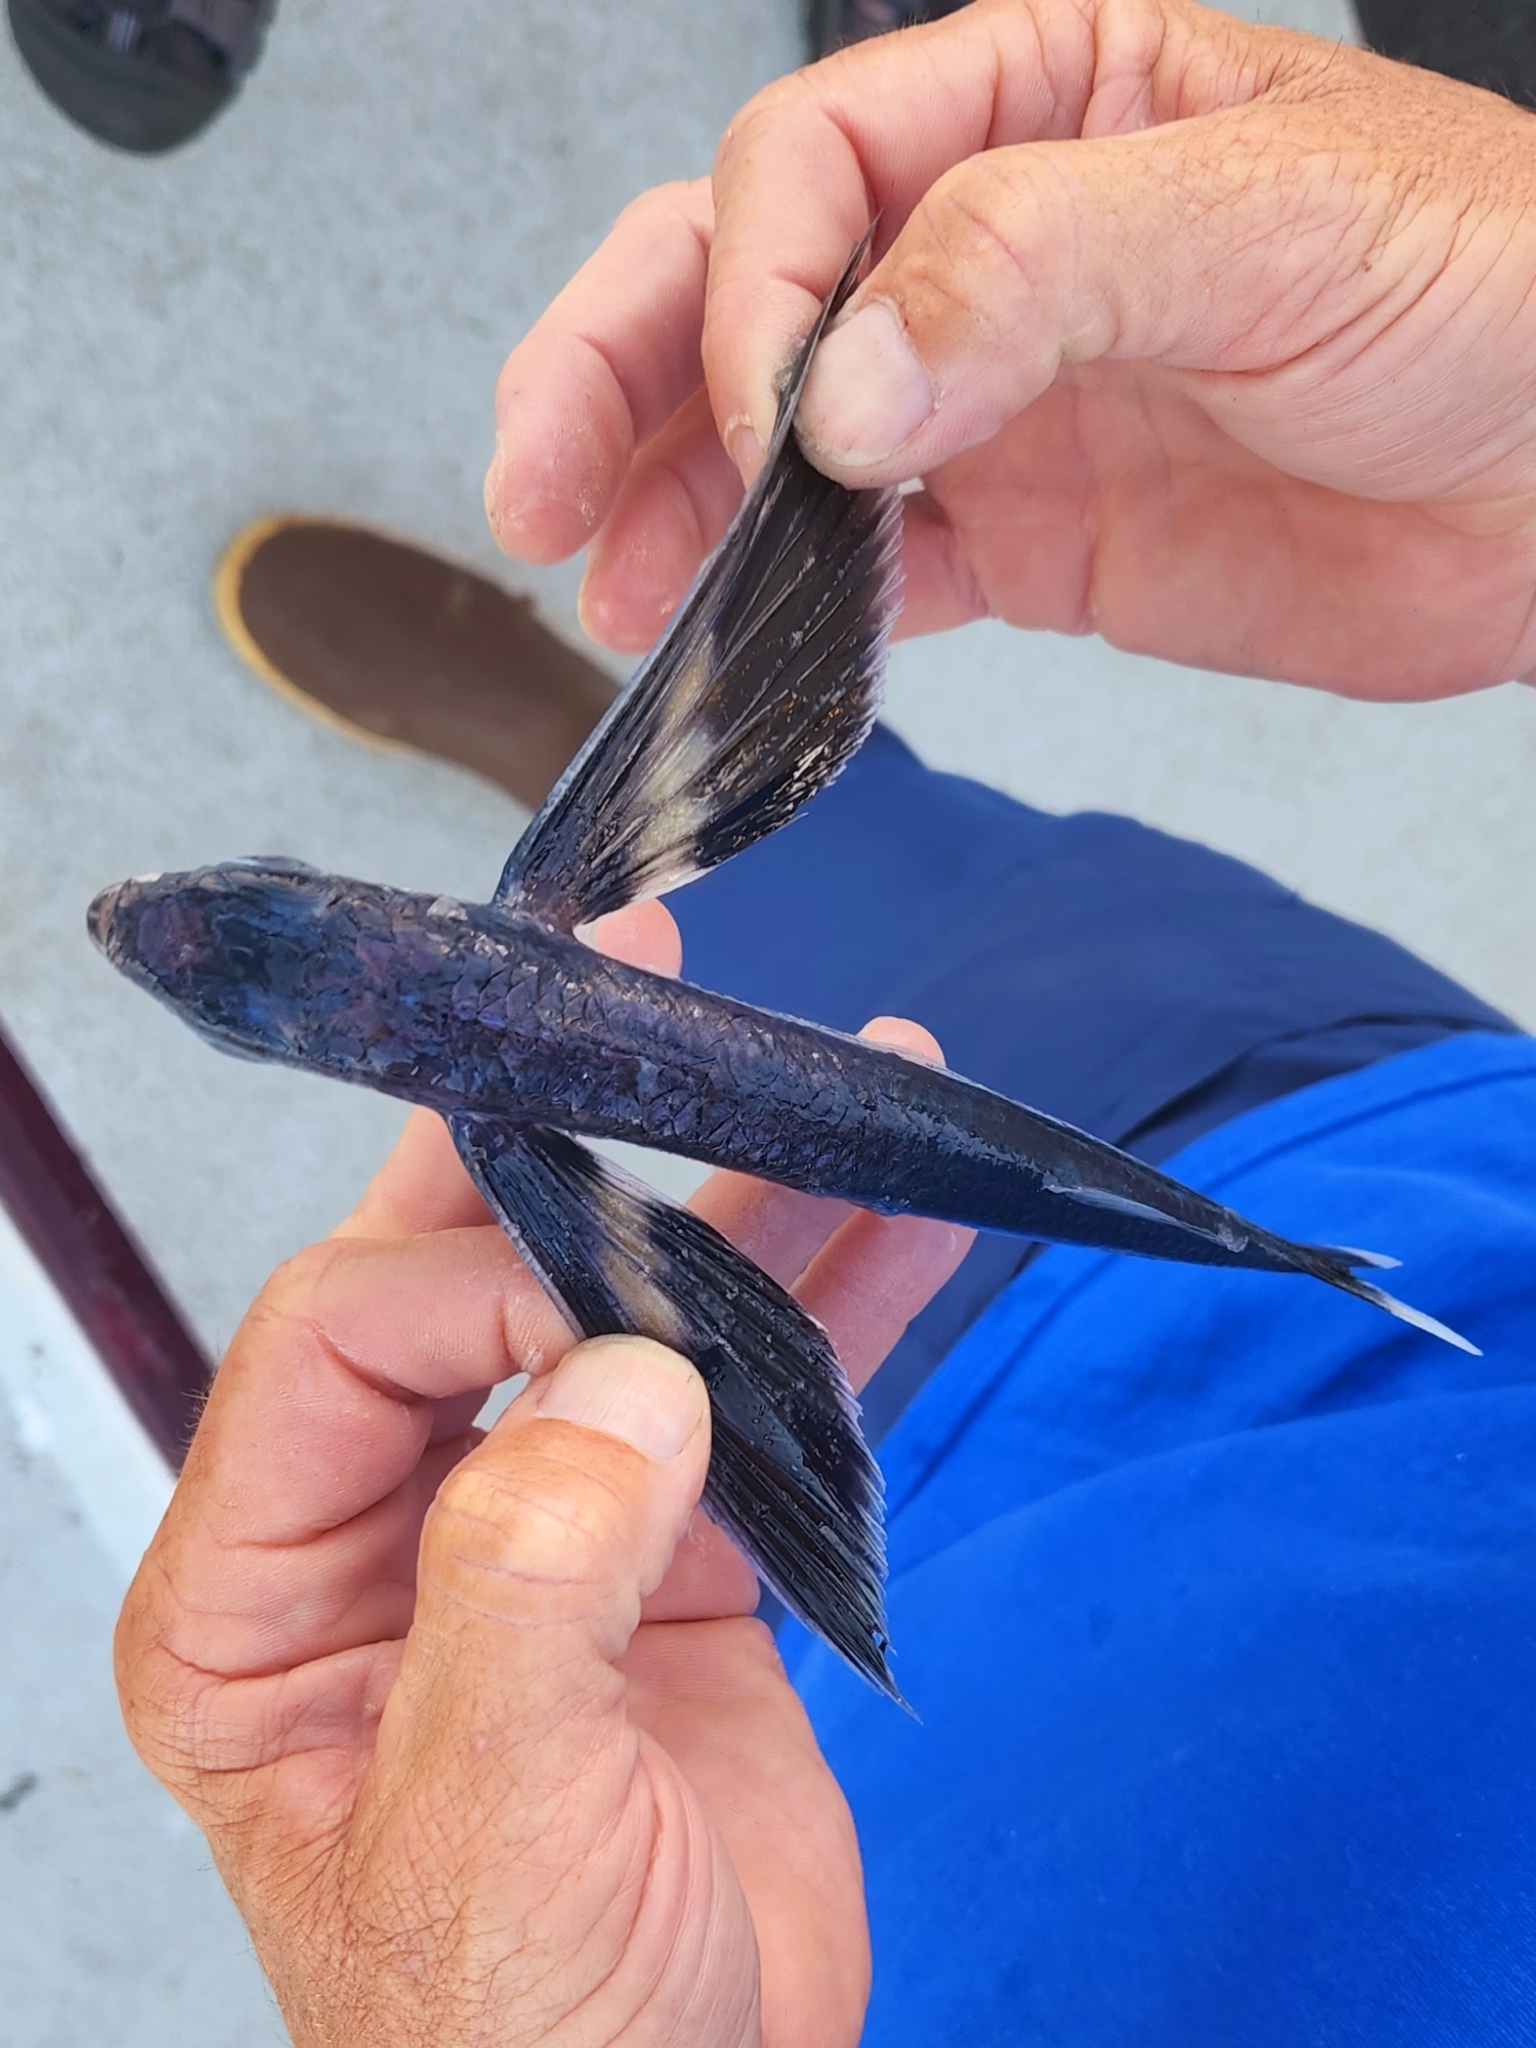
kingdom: Animalia
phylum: Chordata
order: Beloniformes
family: Exocoetidae
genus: Cheilopogon
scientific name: Cheilopogon xenopterus
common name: Whitetip flyingfish
